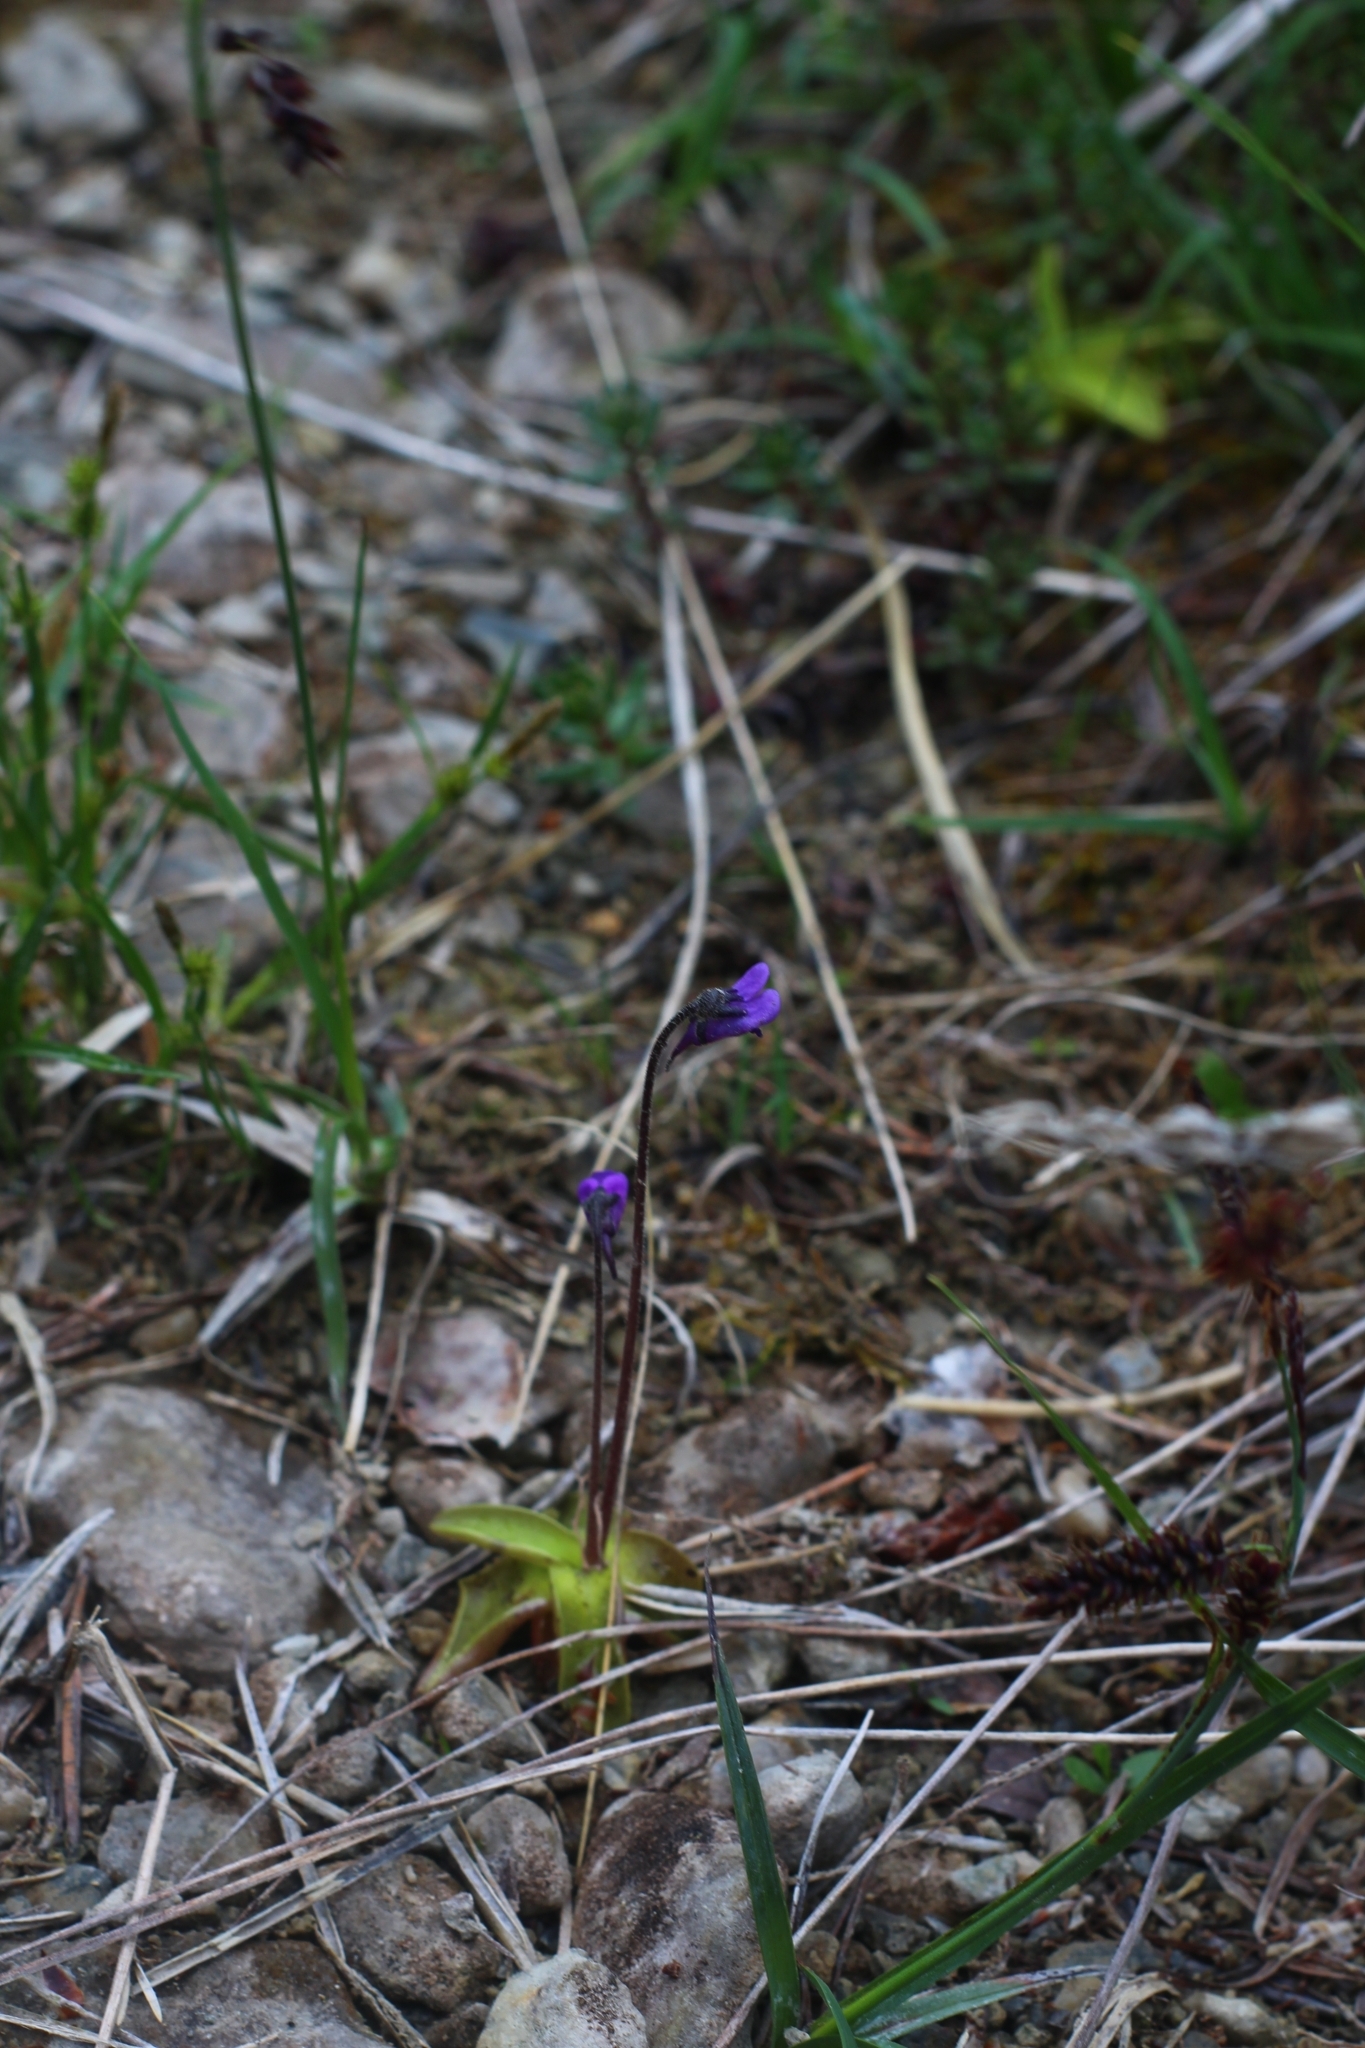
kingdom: Plantae
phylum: Tracheophyta
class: Magnoliopsida
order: Lamiales
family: Lentibulariaceae
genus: Pinguicula
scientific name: Pinguicula vulgaris
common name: Common butterwort
